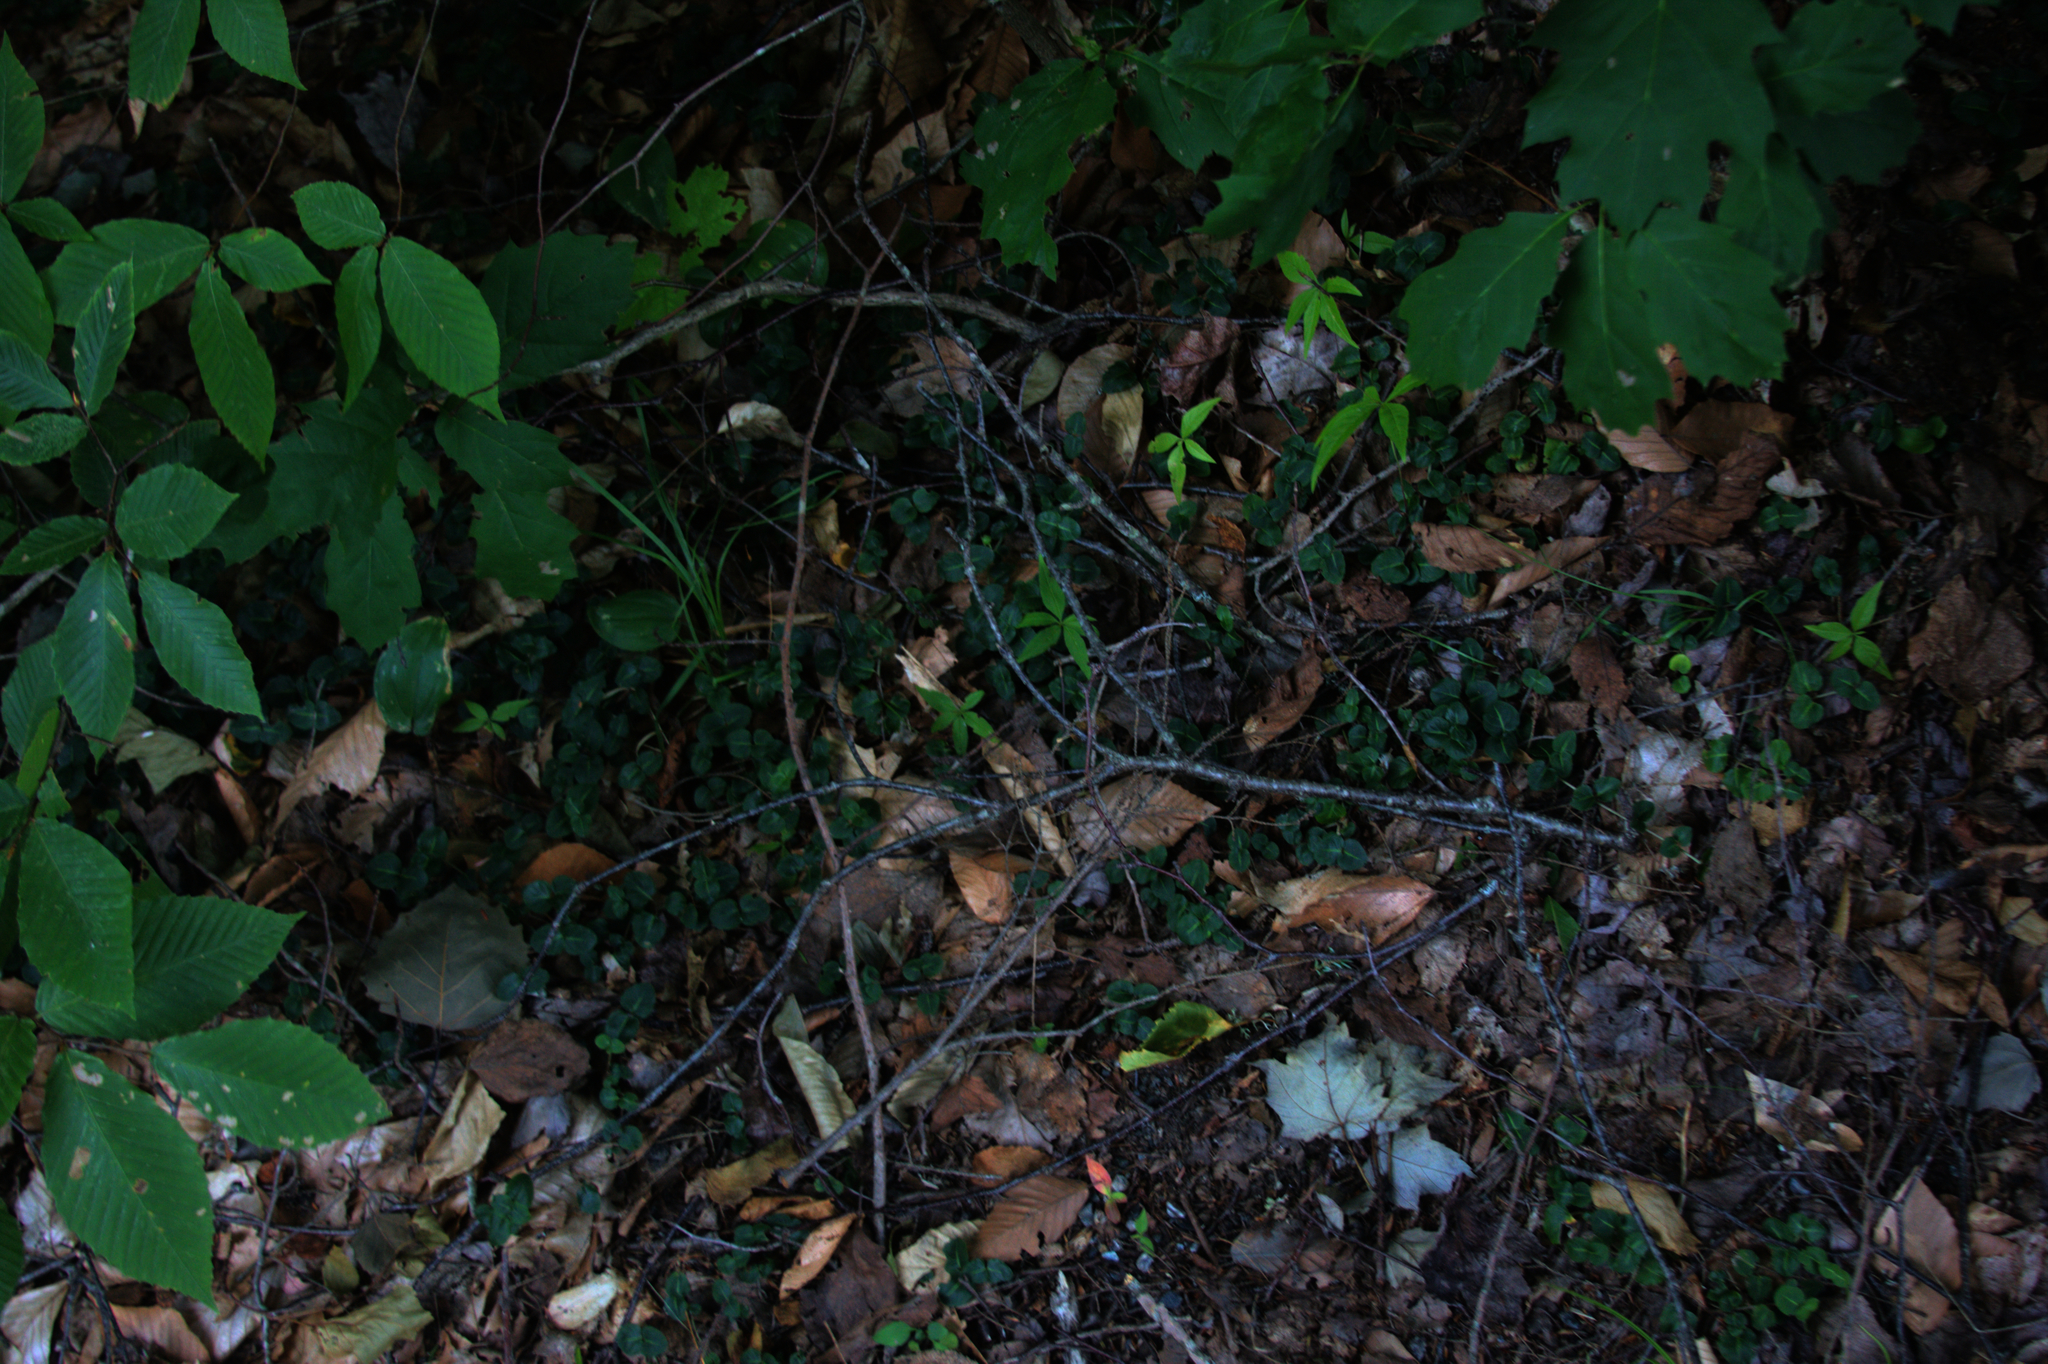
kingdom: Plantae
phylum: Tracheophyta
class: Magnoliopsida
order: Fagales
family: Fagaceae
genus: Quercus
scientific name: Quercus rubra
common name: Red oak
